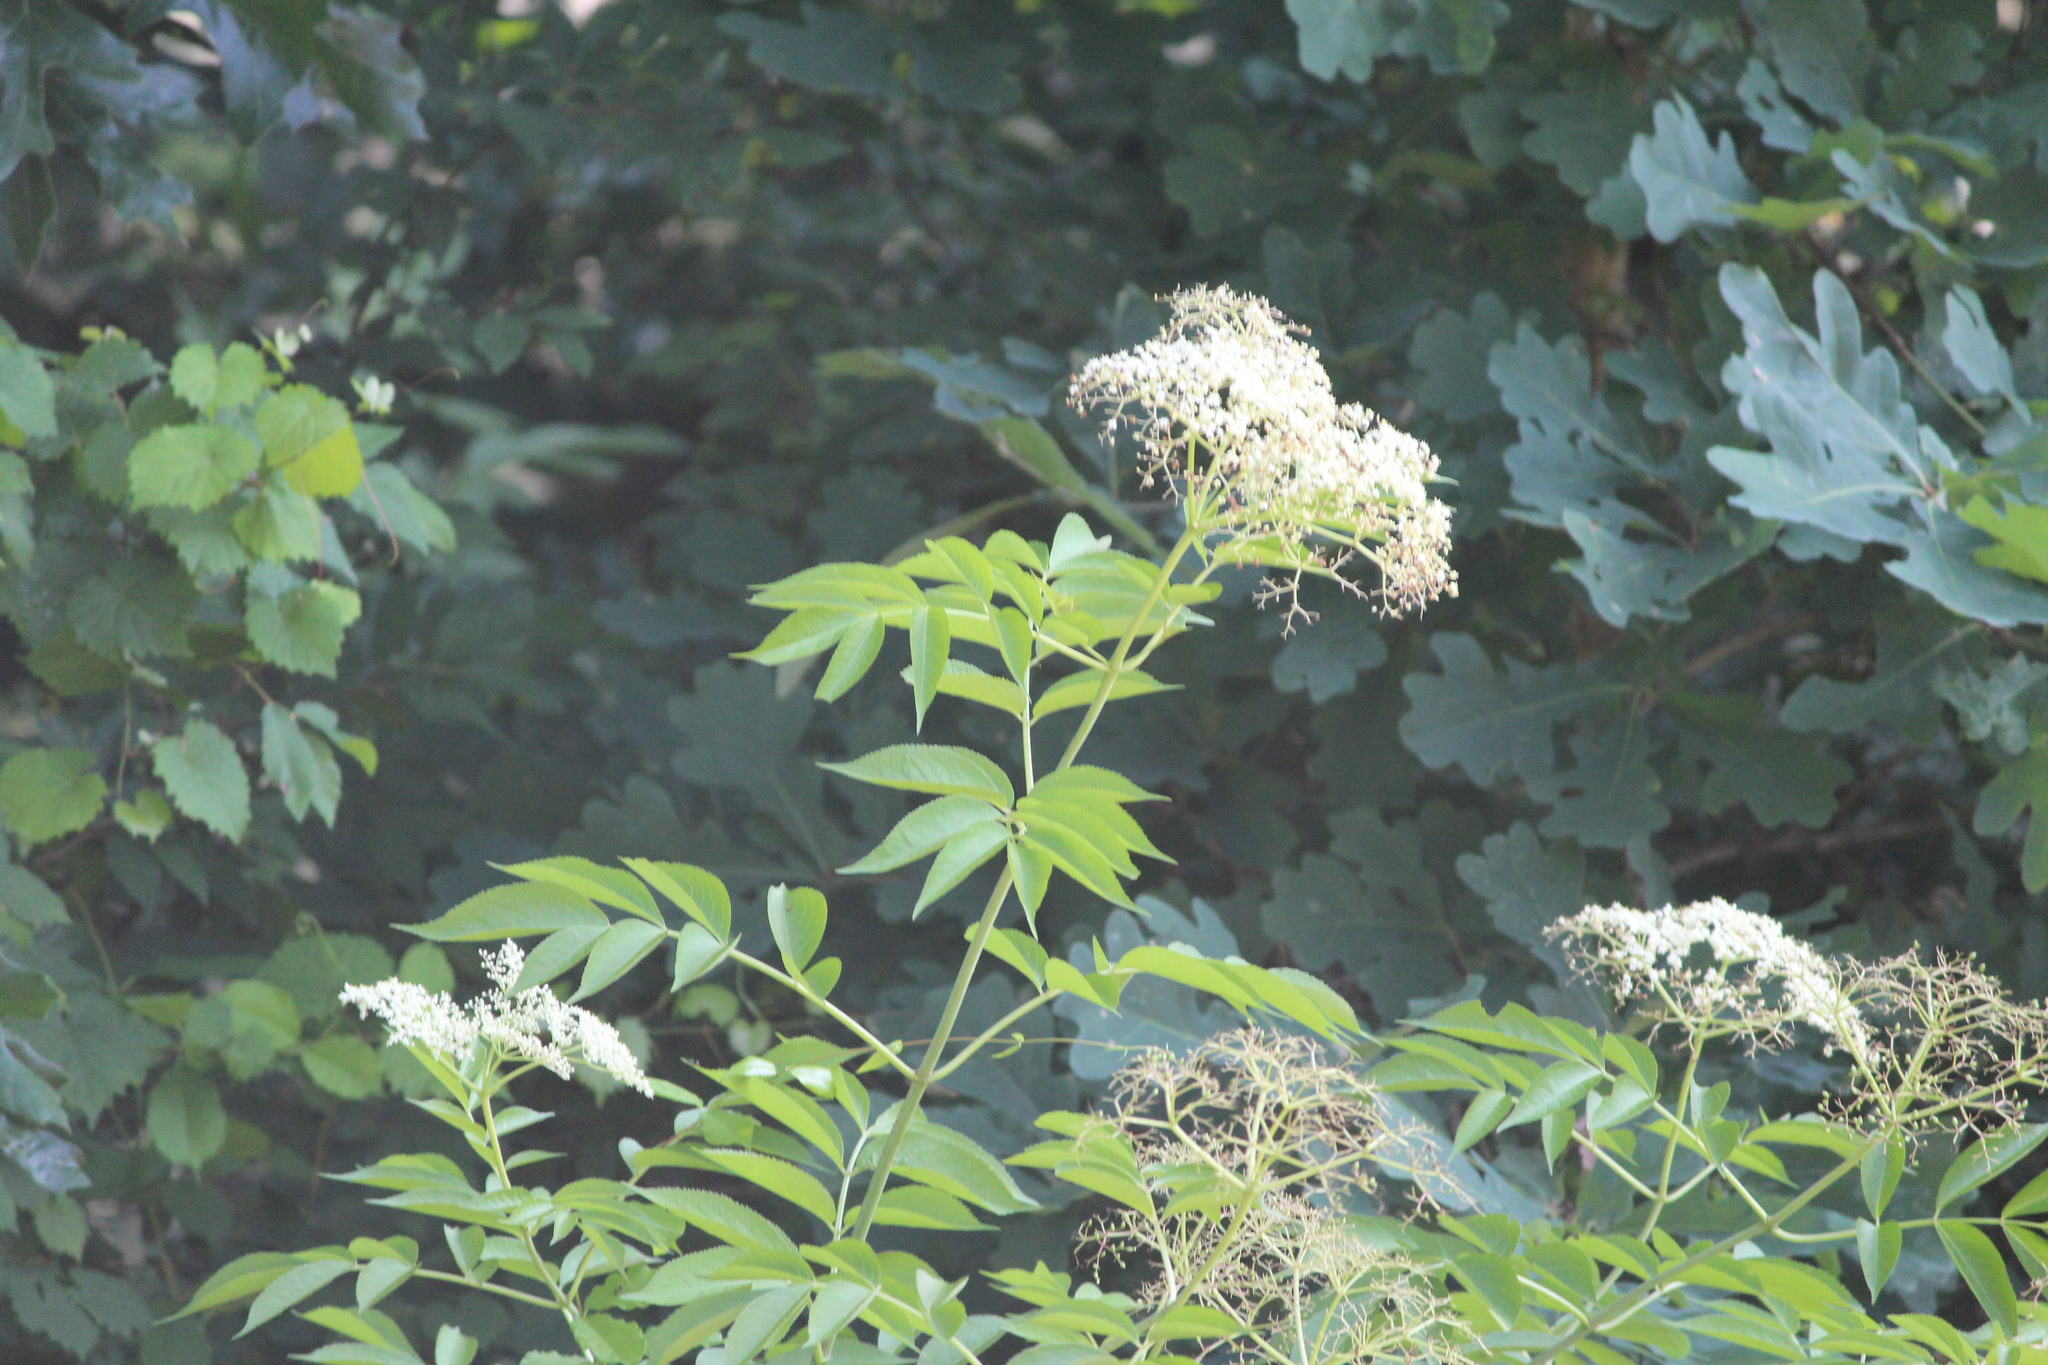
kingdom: Plantae
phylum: Tracheophyta
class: Magnoliopsida
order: Dipsacales
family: Viburnaceae
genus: Sambucus
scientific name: Sambucus canadensis
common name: American elder
